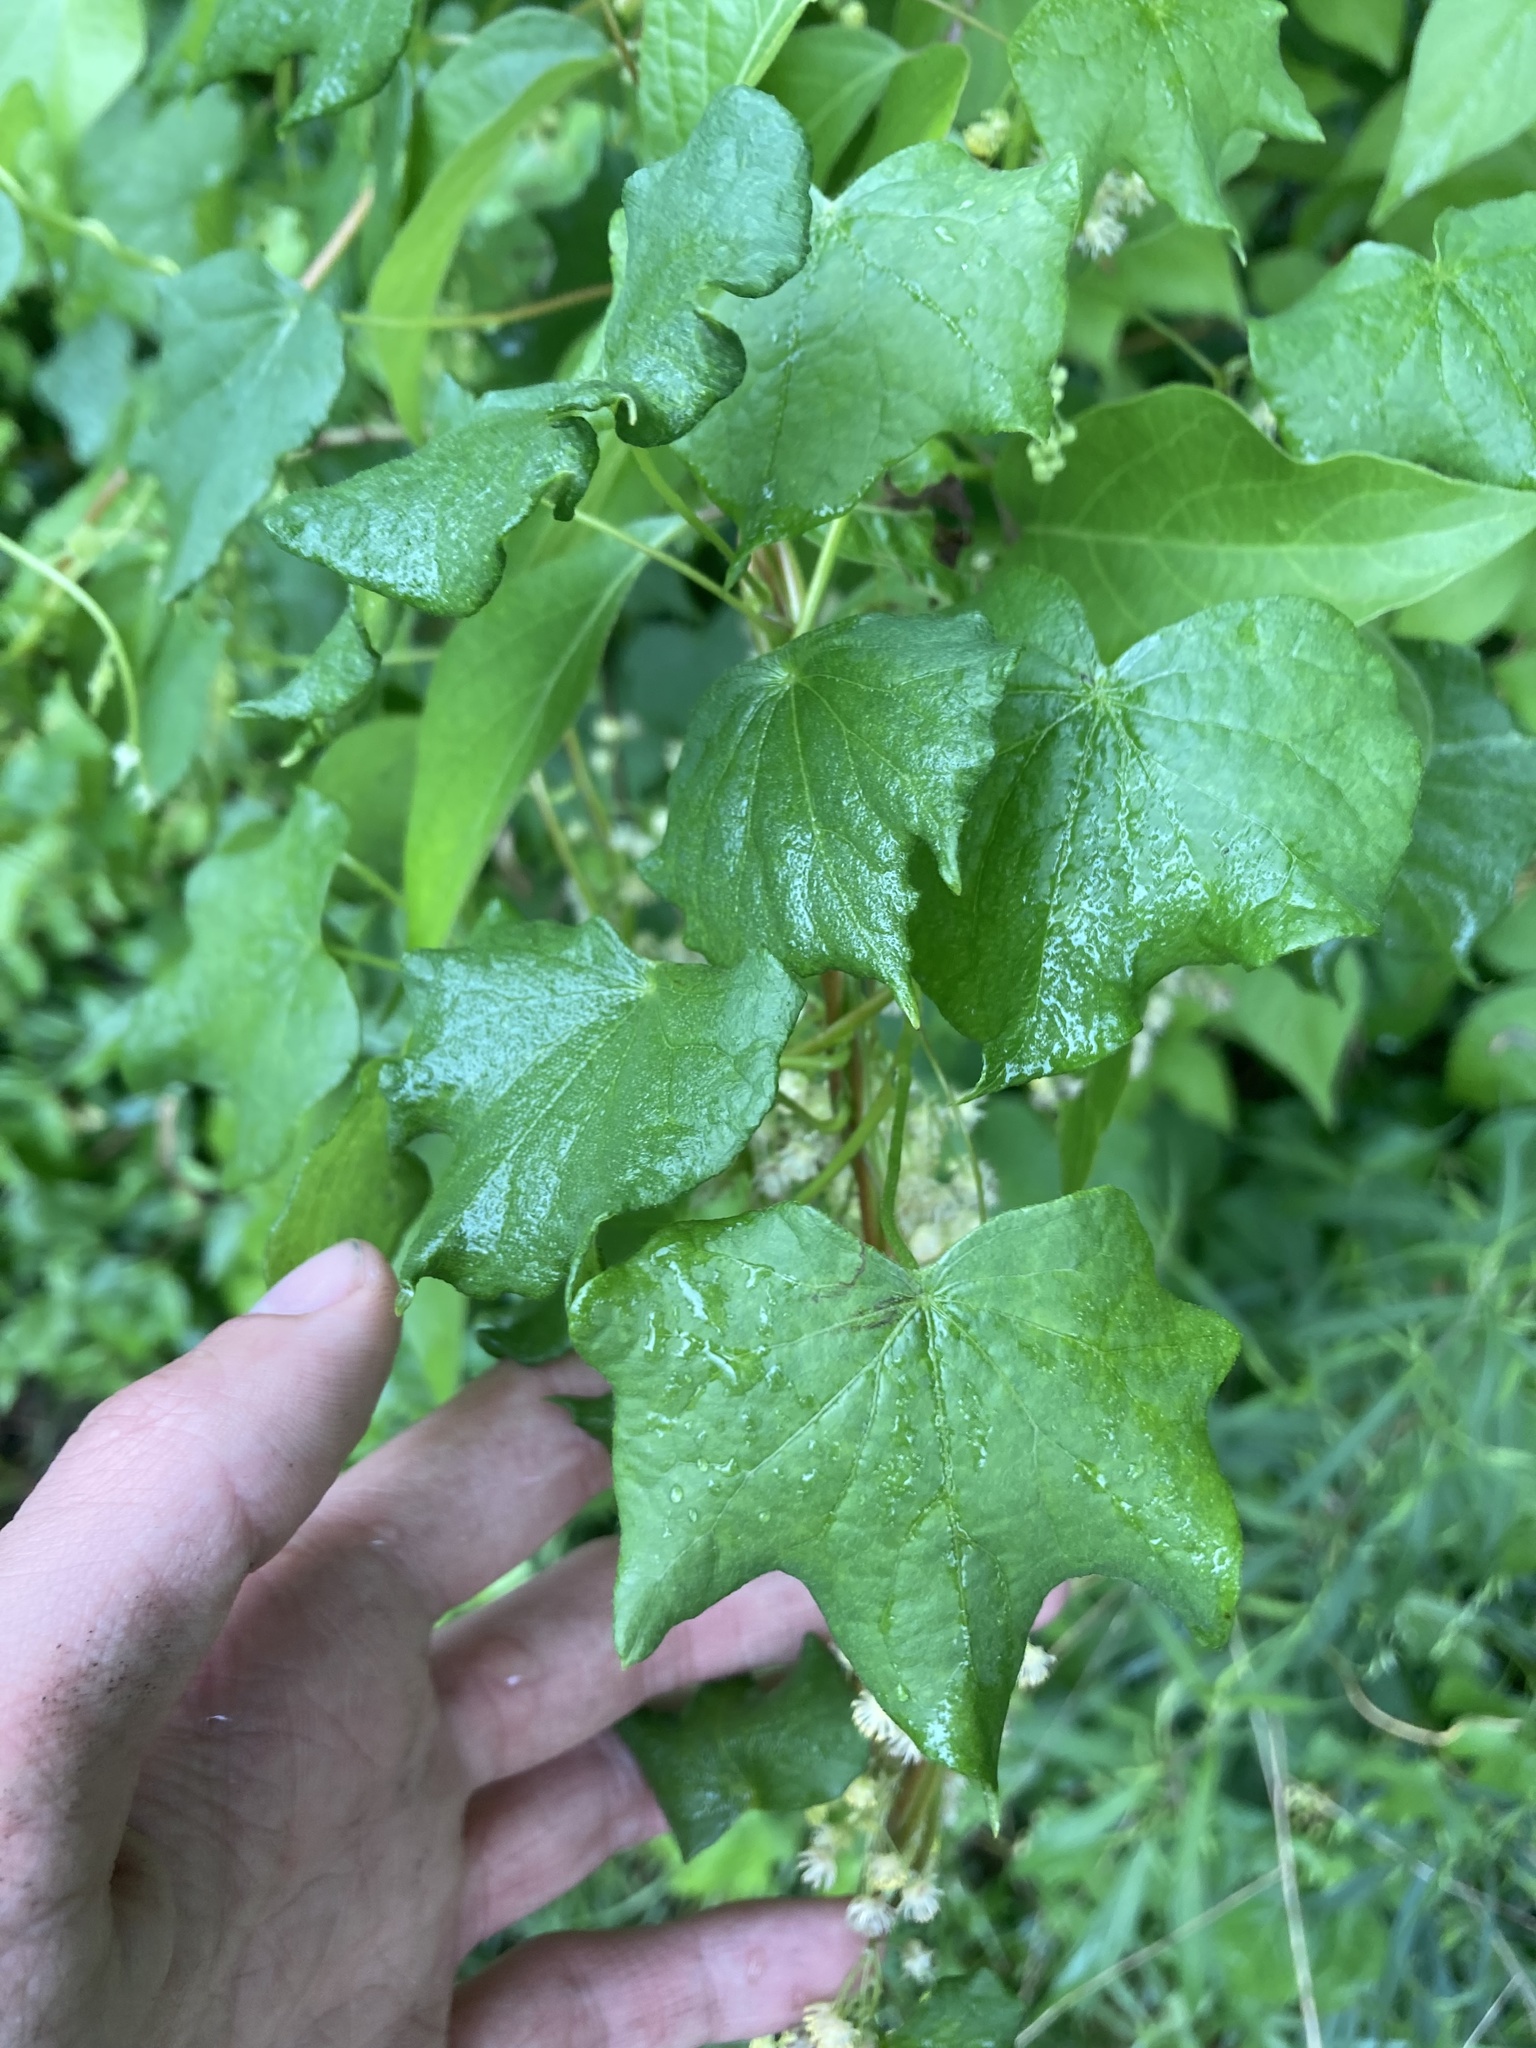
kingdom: Plantae
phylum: Tracheophyta
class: Magnoliopsida
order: Ranunculales
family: Menispermaceae
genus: Menispermum
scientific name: Menispermum canadense
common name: Moonseed
